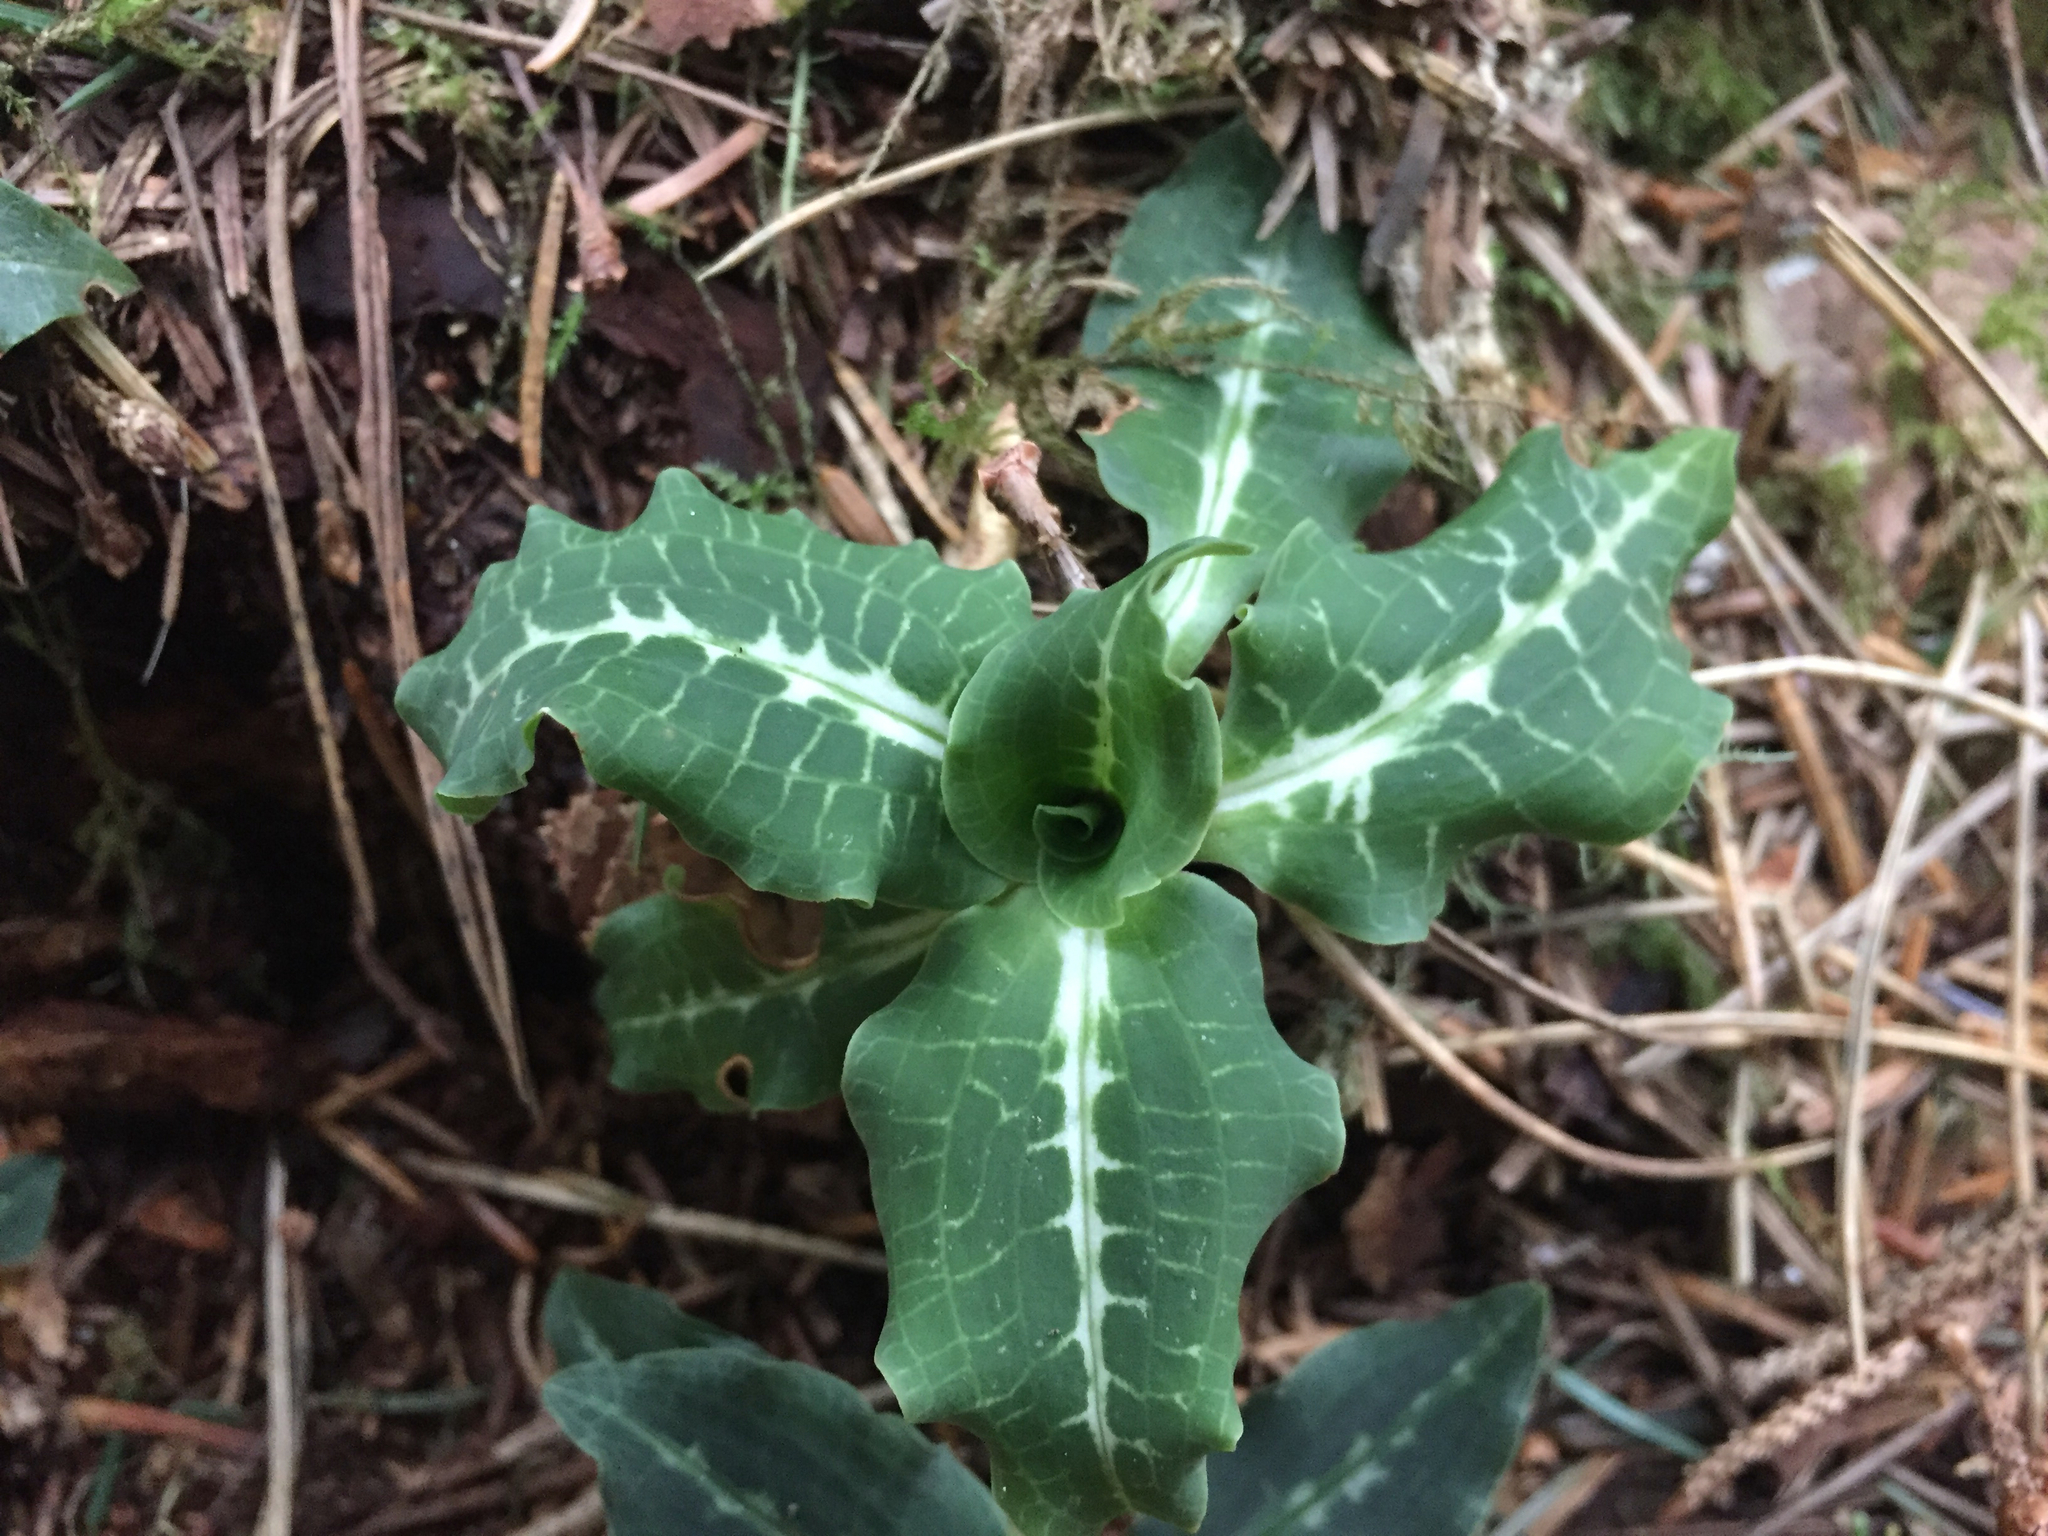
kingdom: Plantae
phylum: Tracheophyta
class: Liliopsida
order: Asparagales
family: Orchidaceae
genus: Goodyera
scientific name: Goodyera oblongifolia
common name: Giant rattlesnake-plantain
